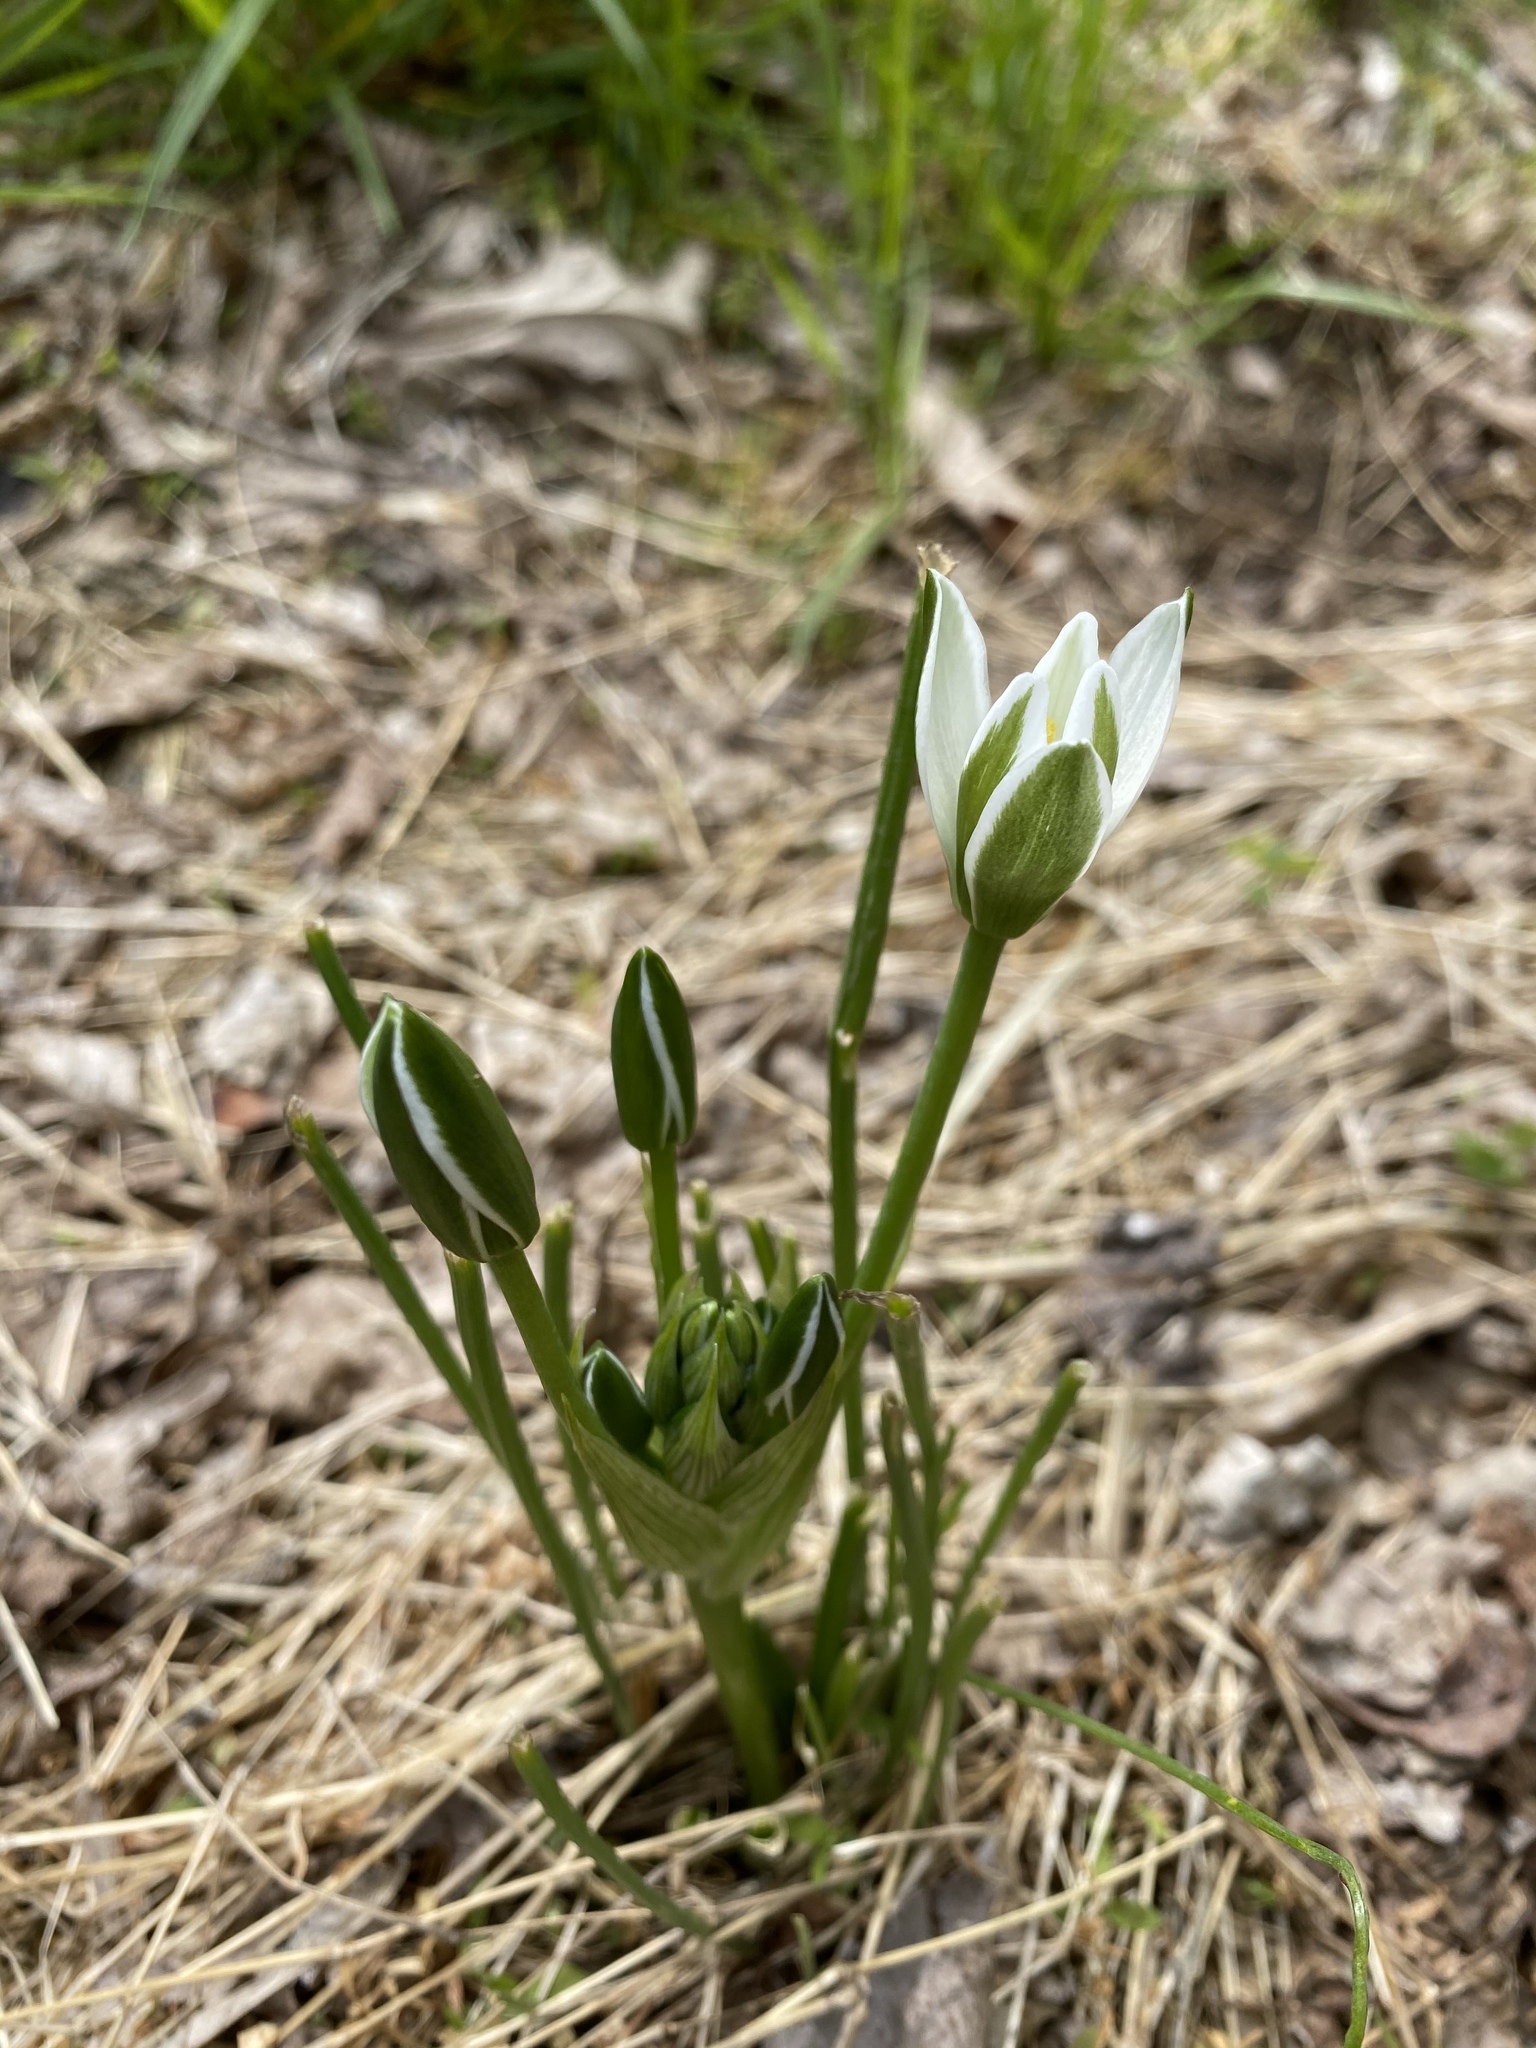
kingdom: Plantae
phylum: Tracheophyta
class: Liliopsida
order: Asparagales
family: Asparagaceae
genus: Ornithogalum
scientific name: Ornithogalum umbellatum
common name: Garden star-of-bethlehem
